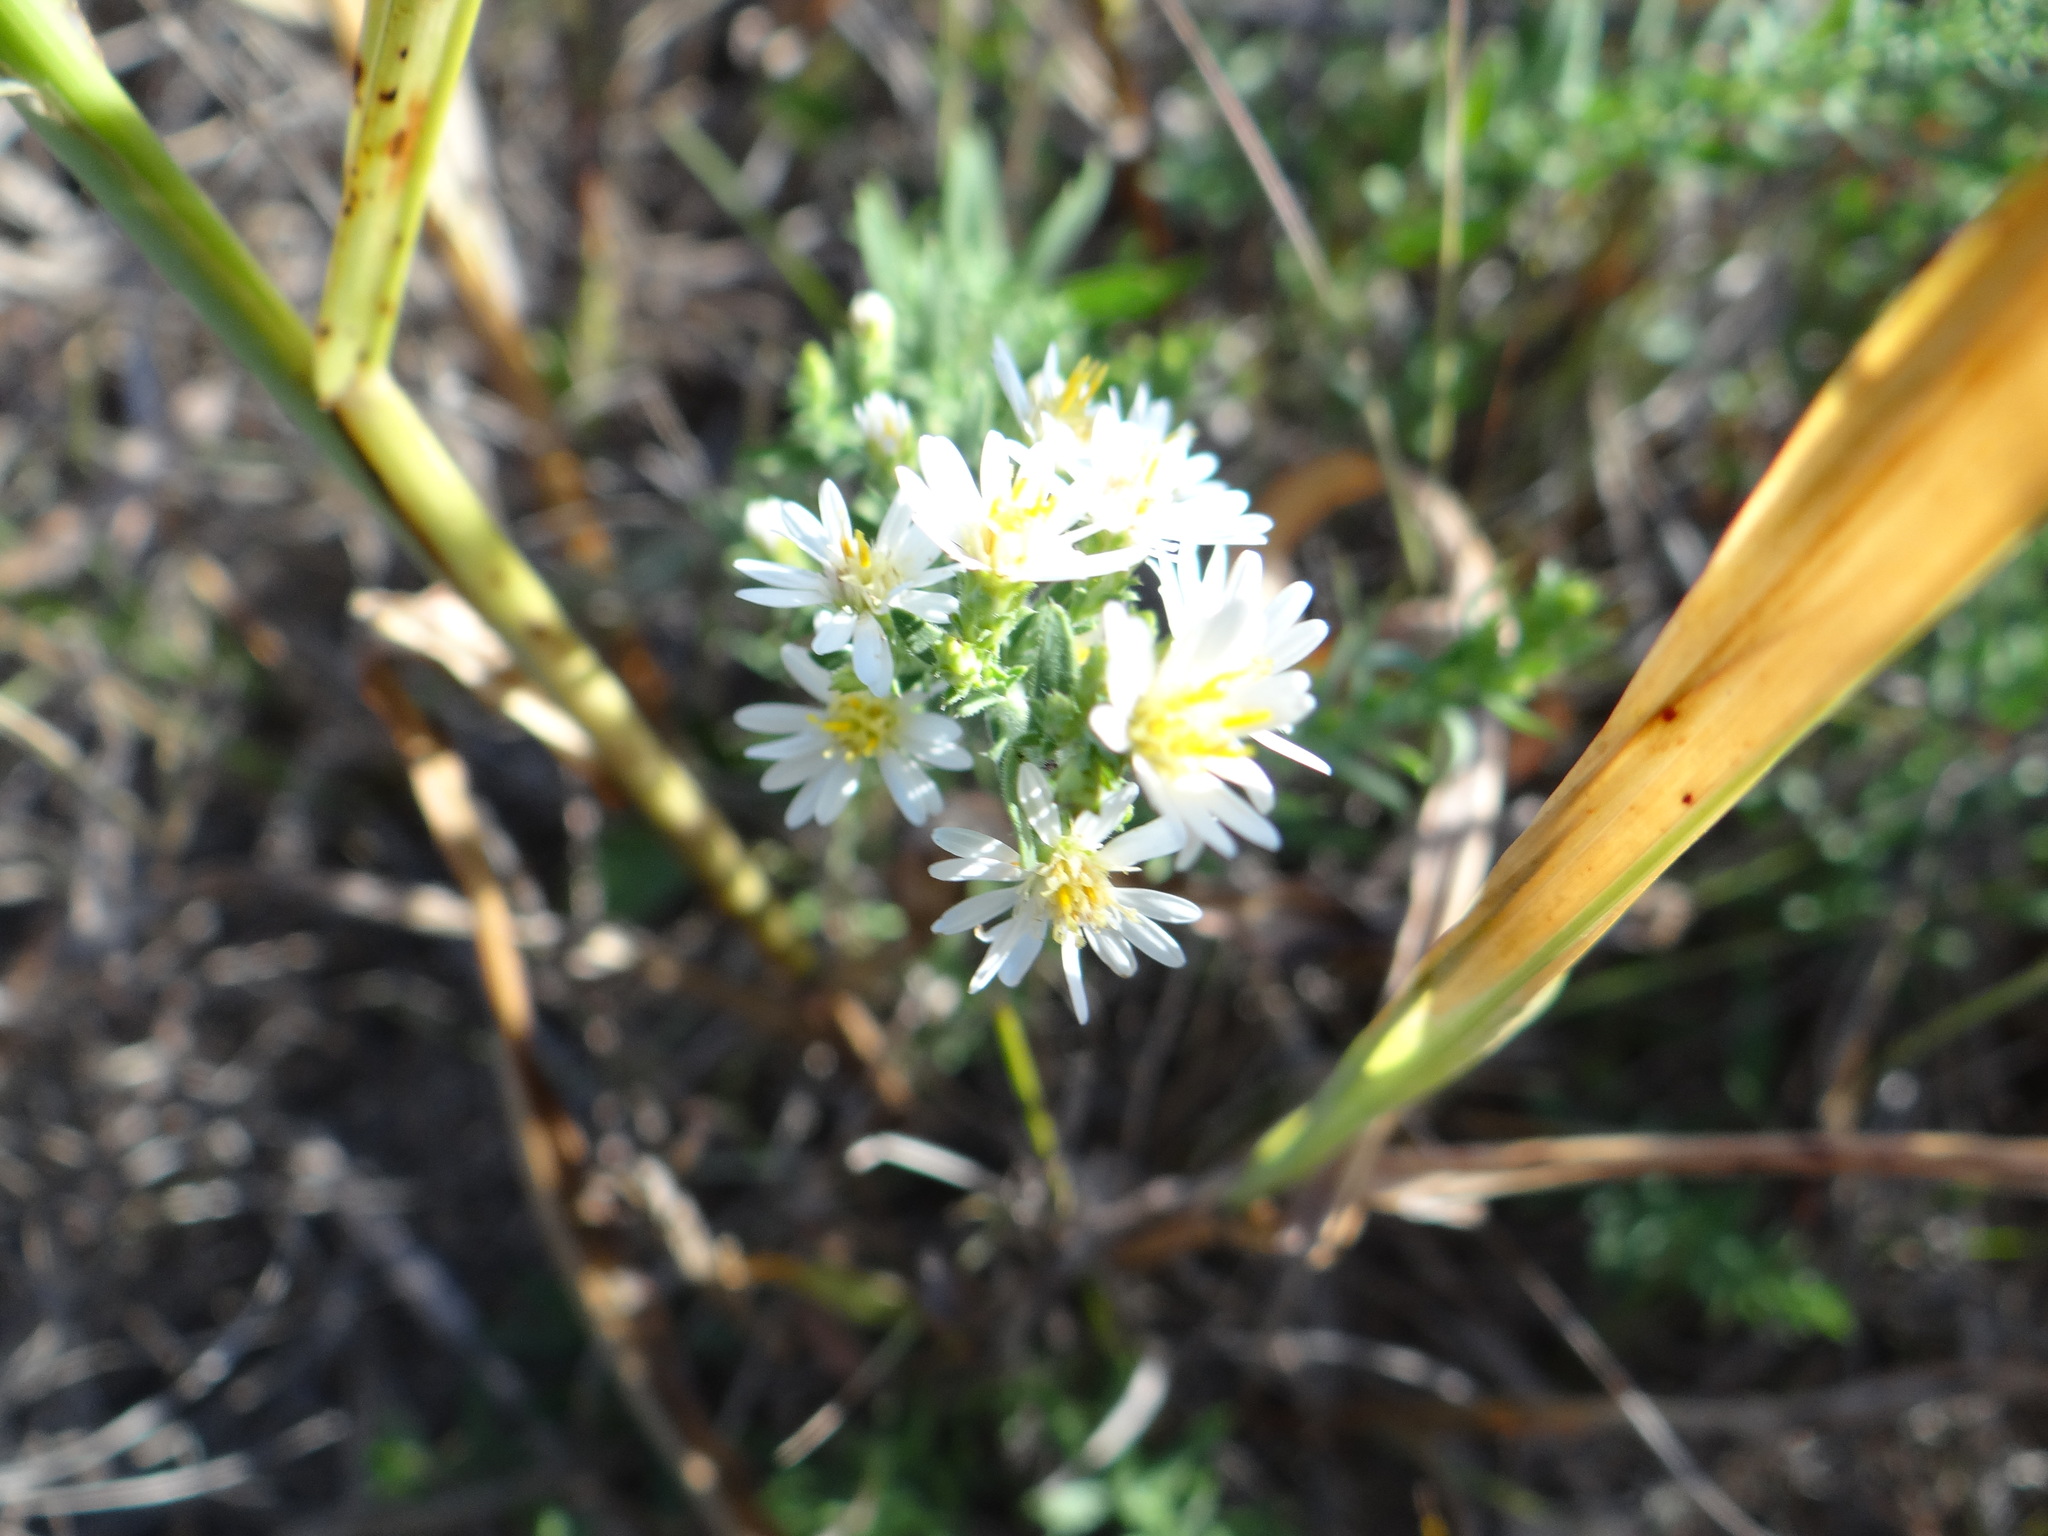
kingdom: Plantae
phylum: Tracheophyta
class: Magnoliopsida
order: Asterales
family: Asteraceae
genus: Symphyotrichum
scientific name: Symphyotrichum ericoides
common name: Heath aster
